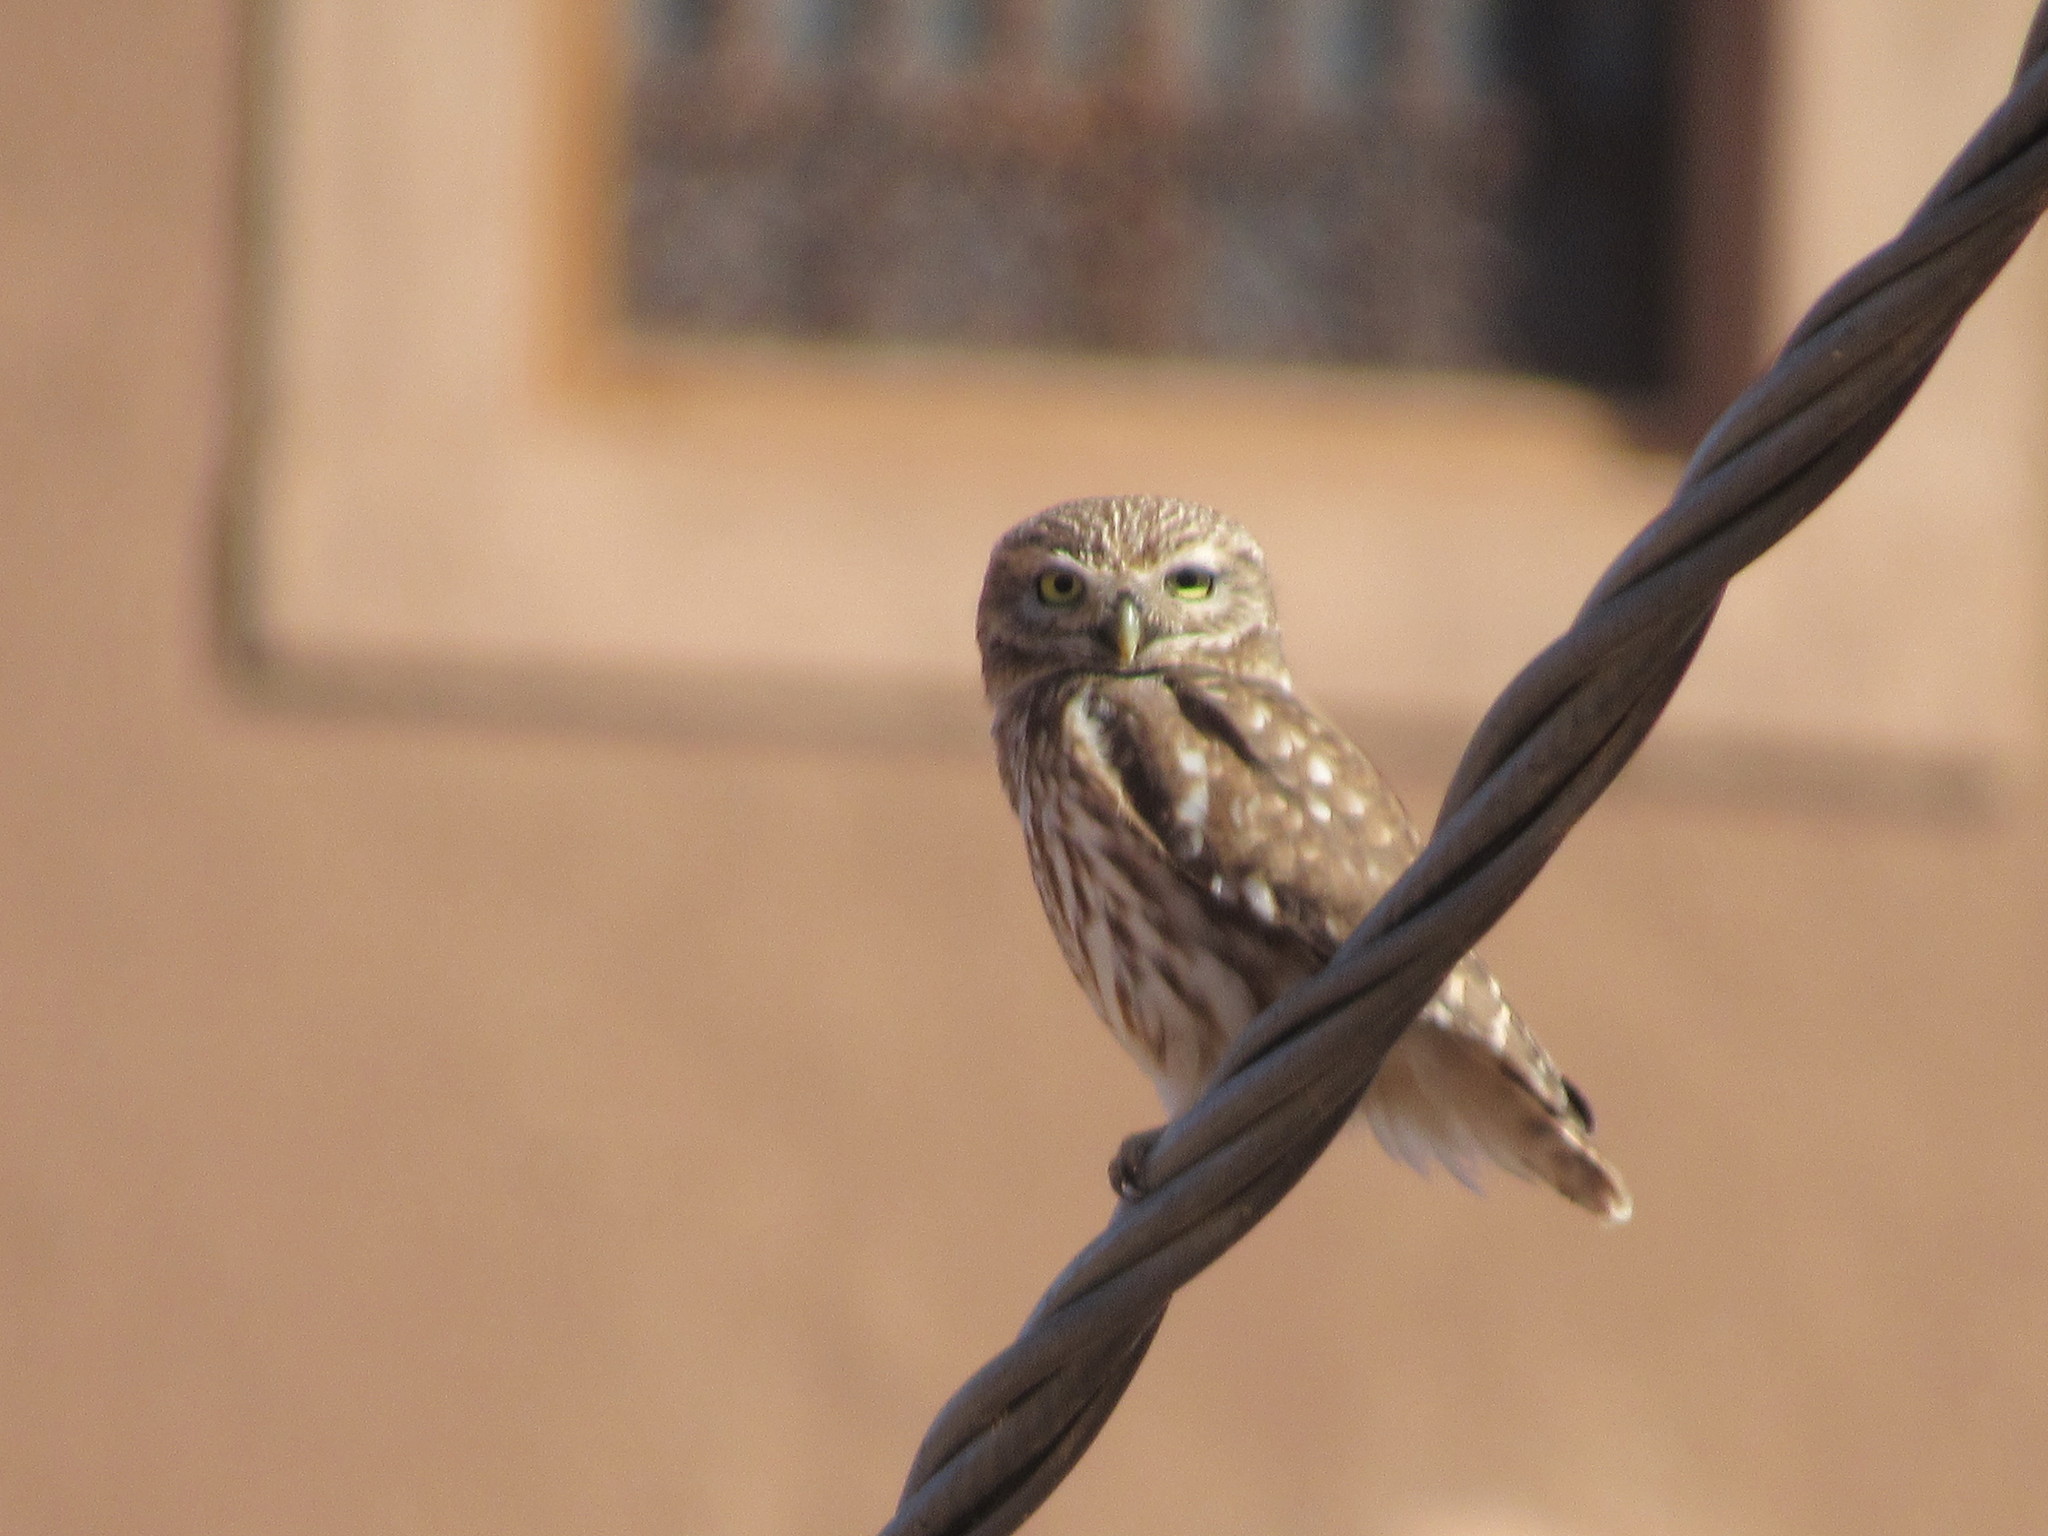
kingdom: Animalia
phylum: Chordata
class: Aves
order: Strigiformes
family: Strigidae
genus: Athene
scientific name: Athene noctua
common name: Little owl
